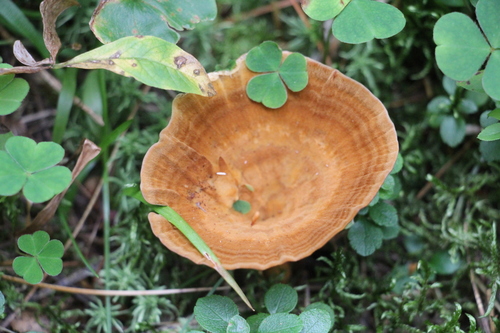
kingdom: Fungi
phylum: Basidiomycota
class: Agaricomycetes
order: Hymenochaetales
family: Hymenochaetaceae
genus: Coltricia
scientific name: Coltricia perennis
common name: Tiger's eye
